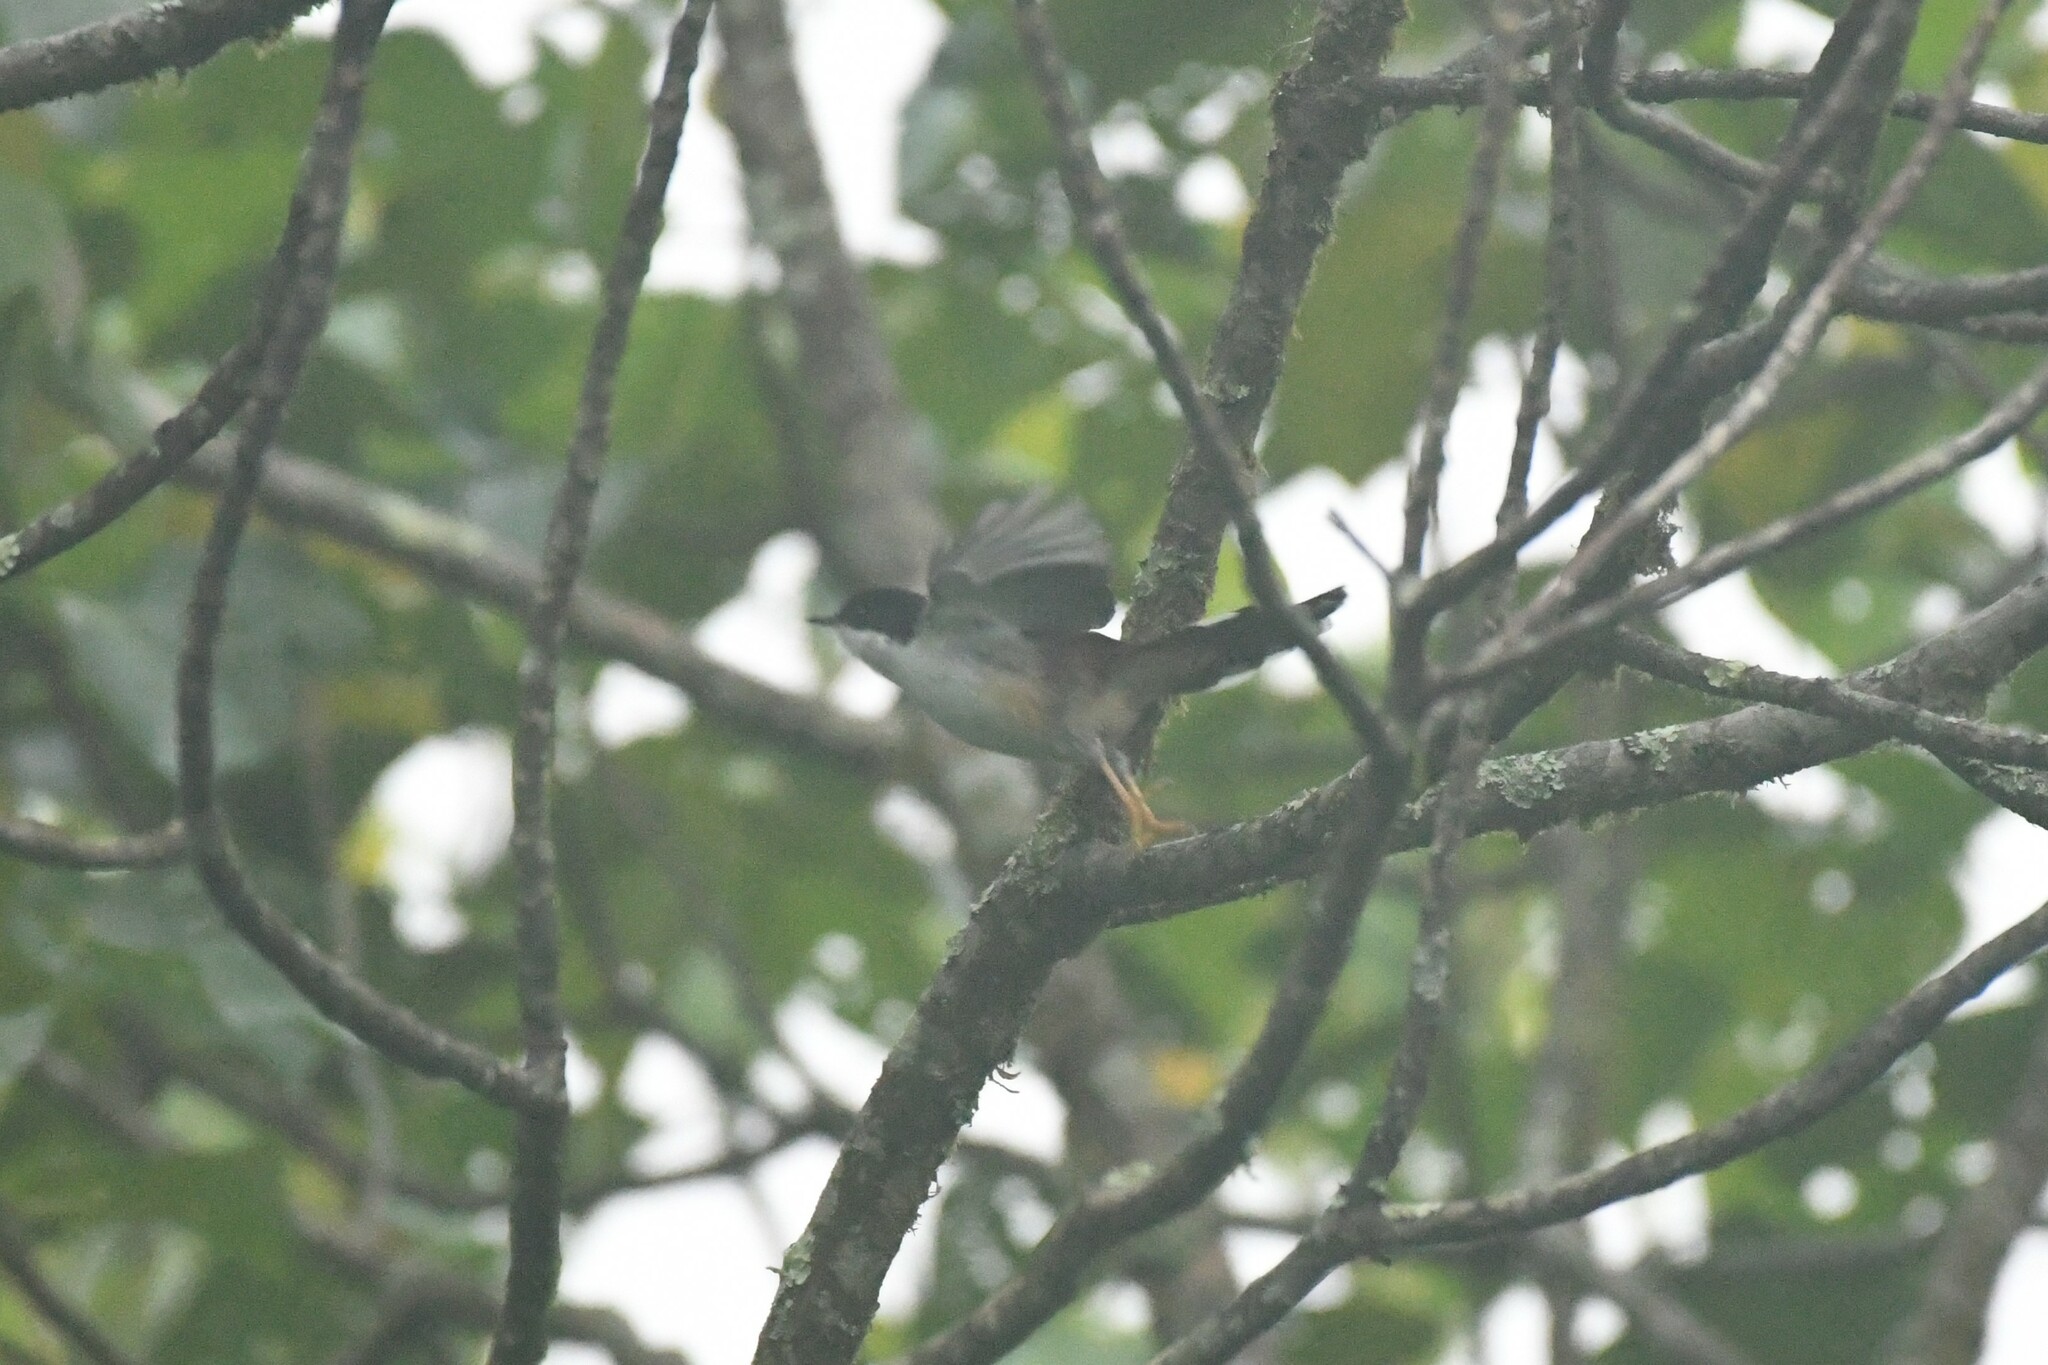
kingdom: Animalia
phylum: Chordata
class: Aves
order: Passeriformes
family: Leiothrichidae
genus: Heterophasia
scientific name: Heterophasia annectans
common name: Rufous-backed sibia
